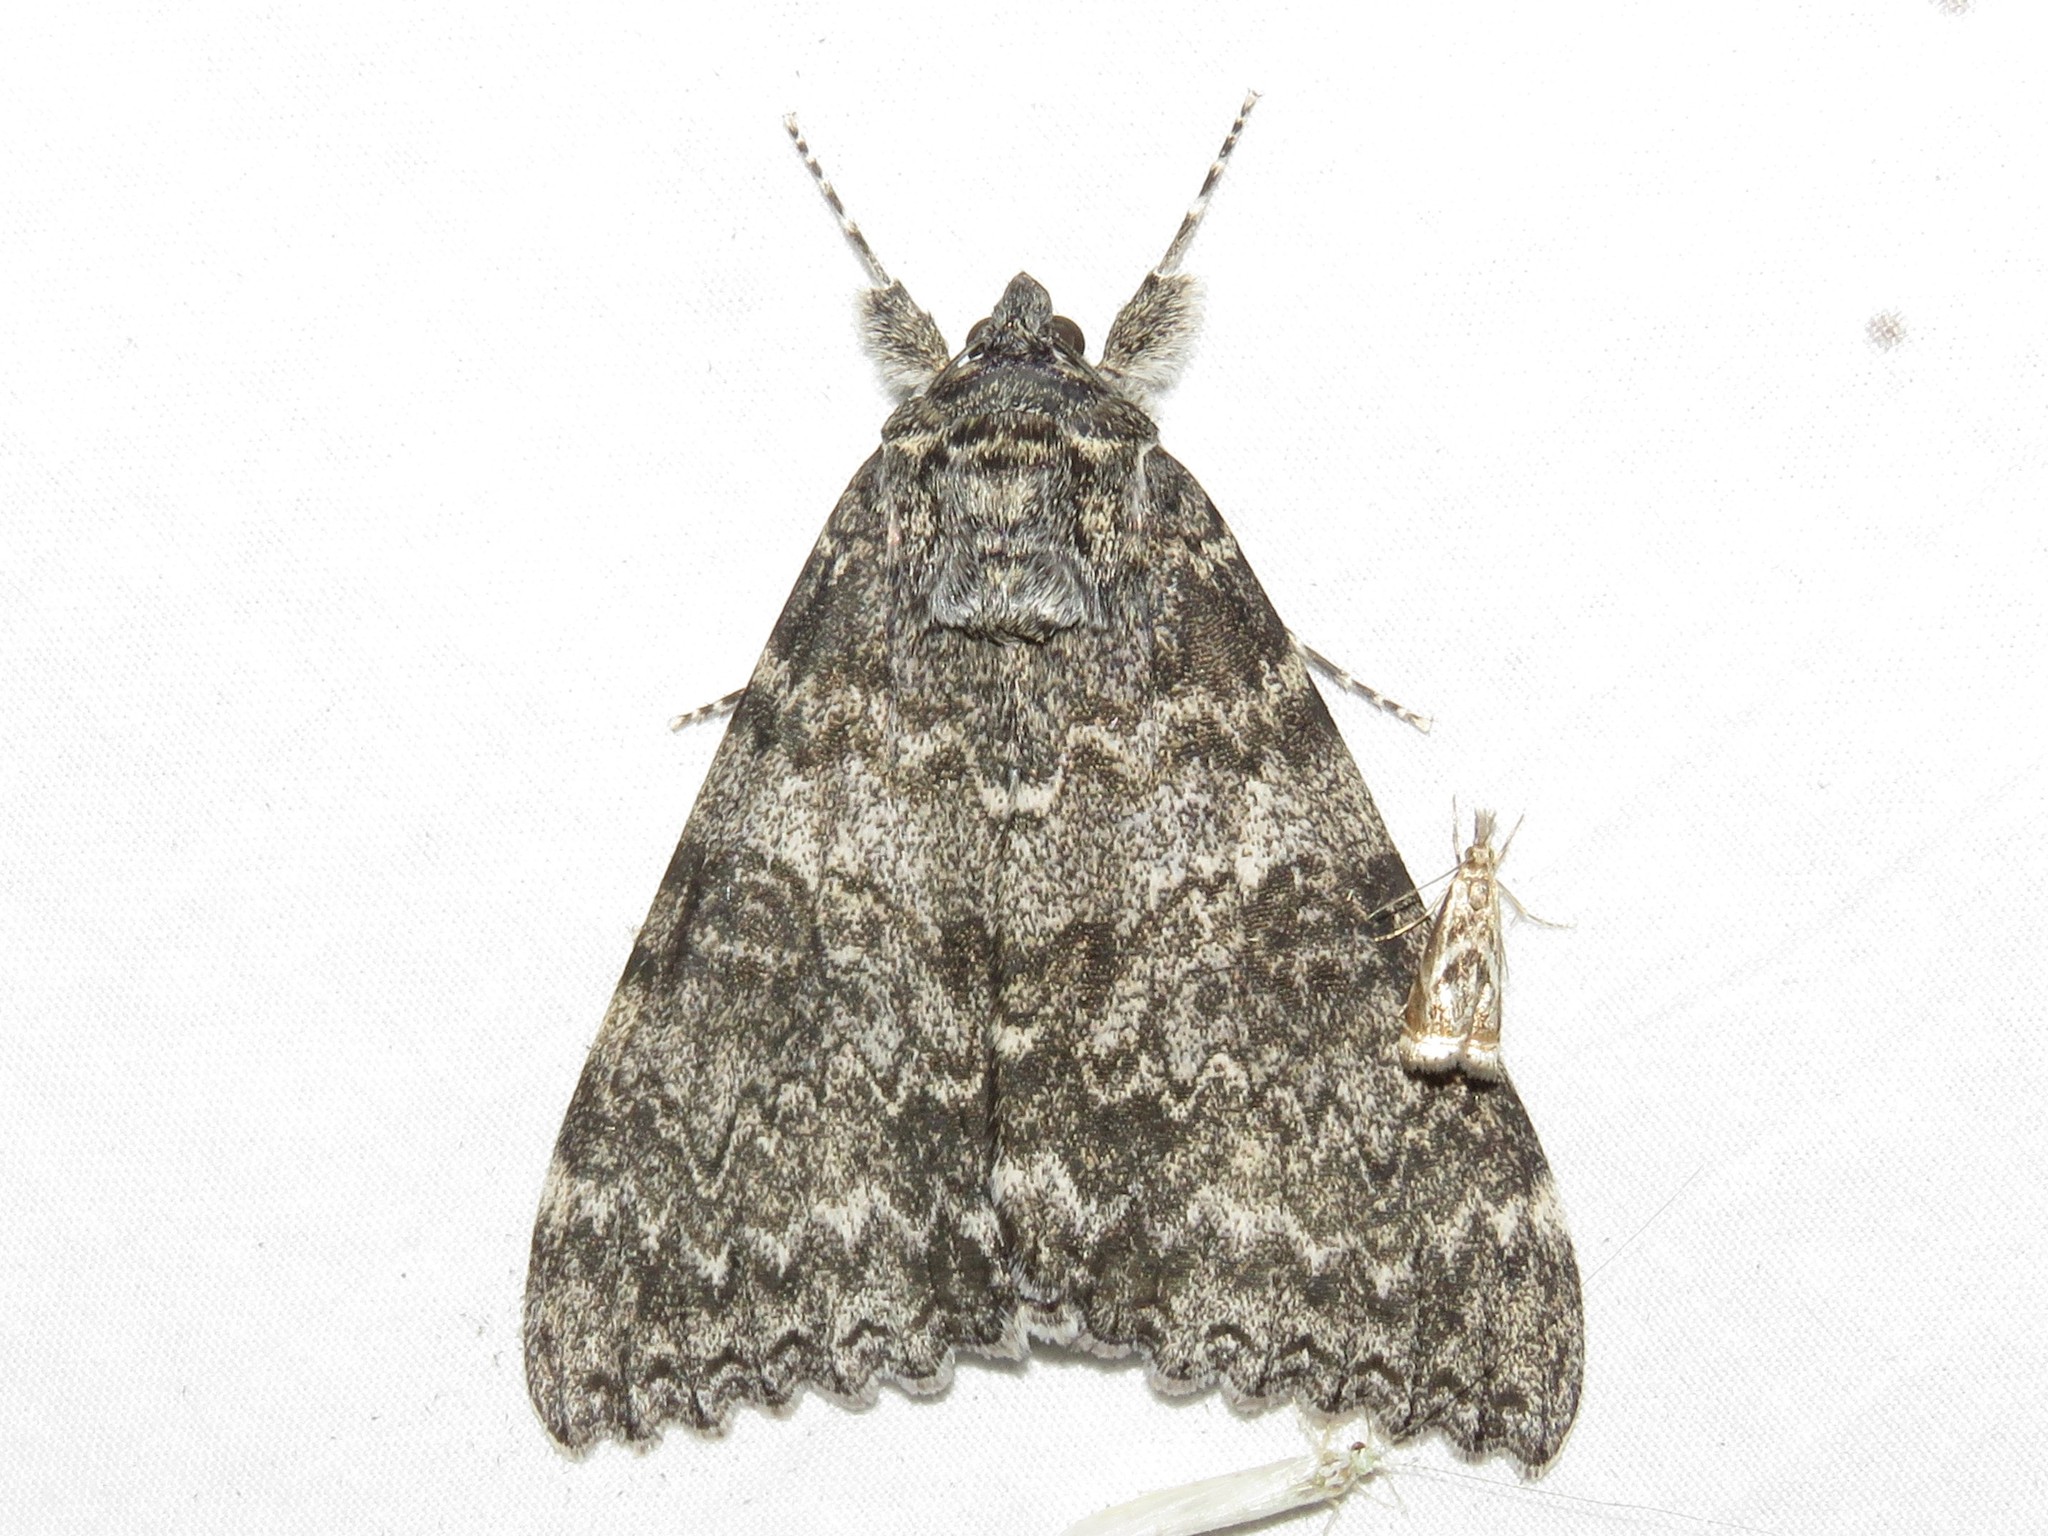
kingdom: Animalia
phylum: Arthropoda
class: Insecta
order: Lepidoptera
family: Erebidae
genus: Catocala
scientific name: Catocala unijuga
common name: Once-married underwing
